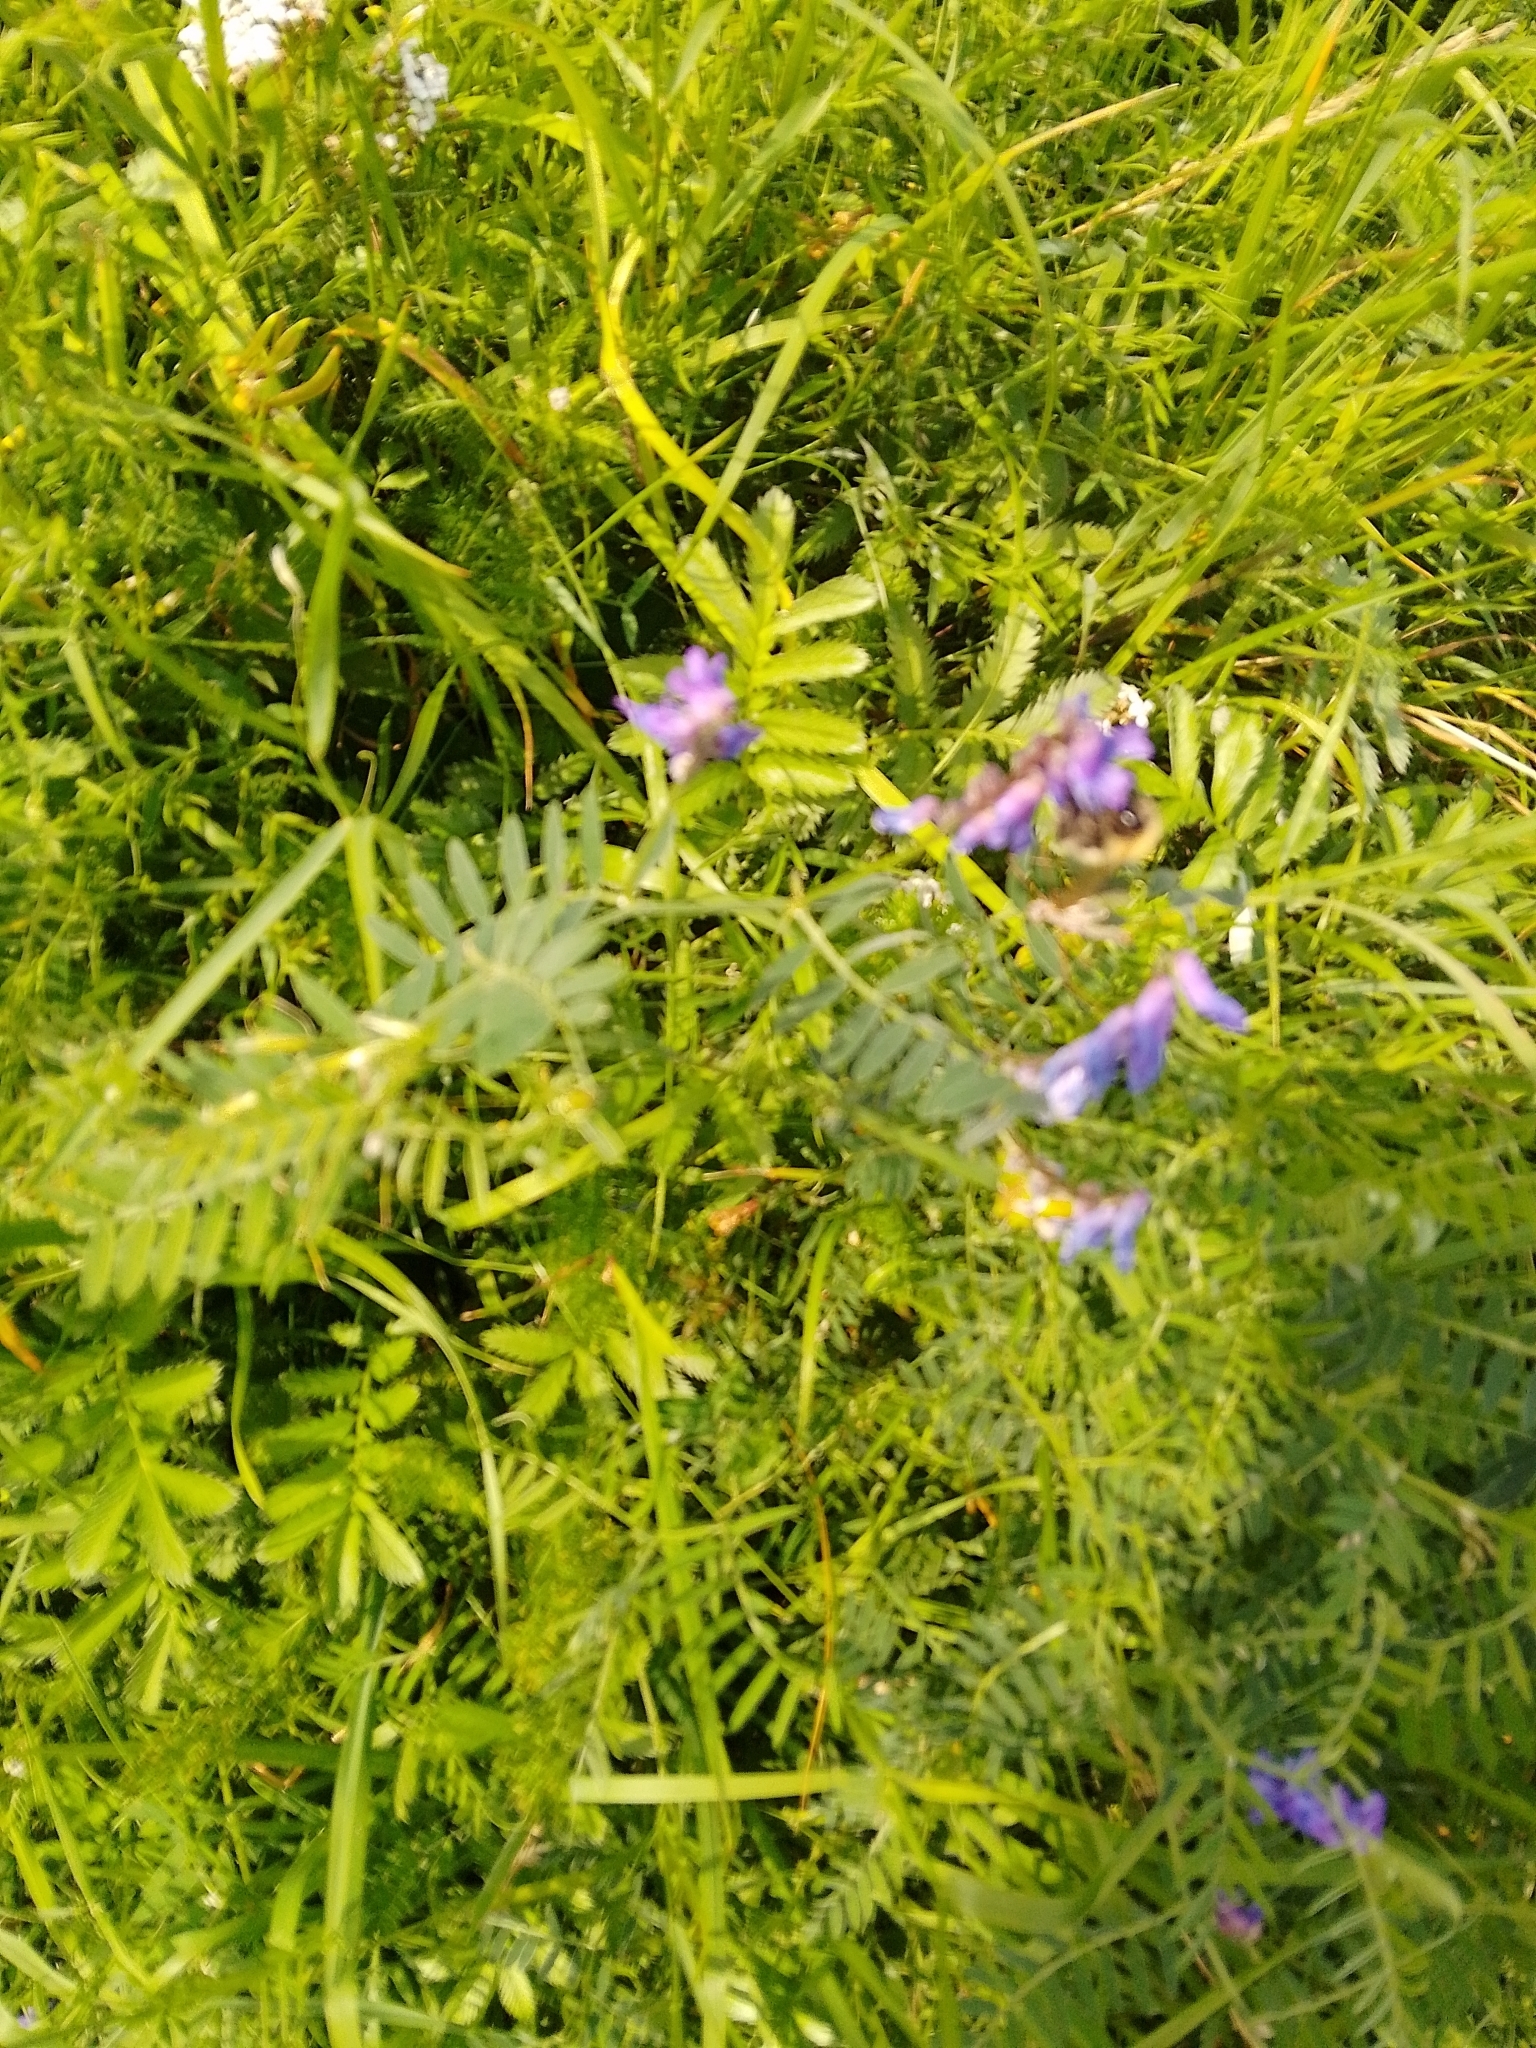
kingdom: Plantae
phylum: Tracheophyta
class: Magnoliopsida
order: Fabales
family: Fabaceae
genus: Vicia
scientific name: Vicia cracca
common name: Bird vetch
